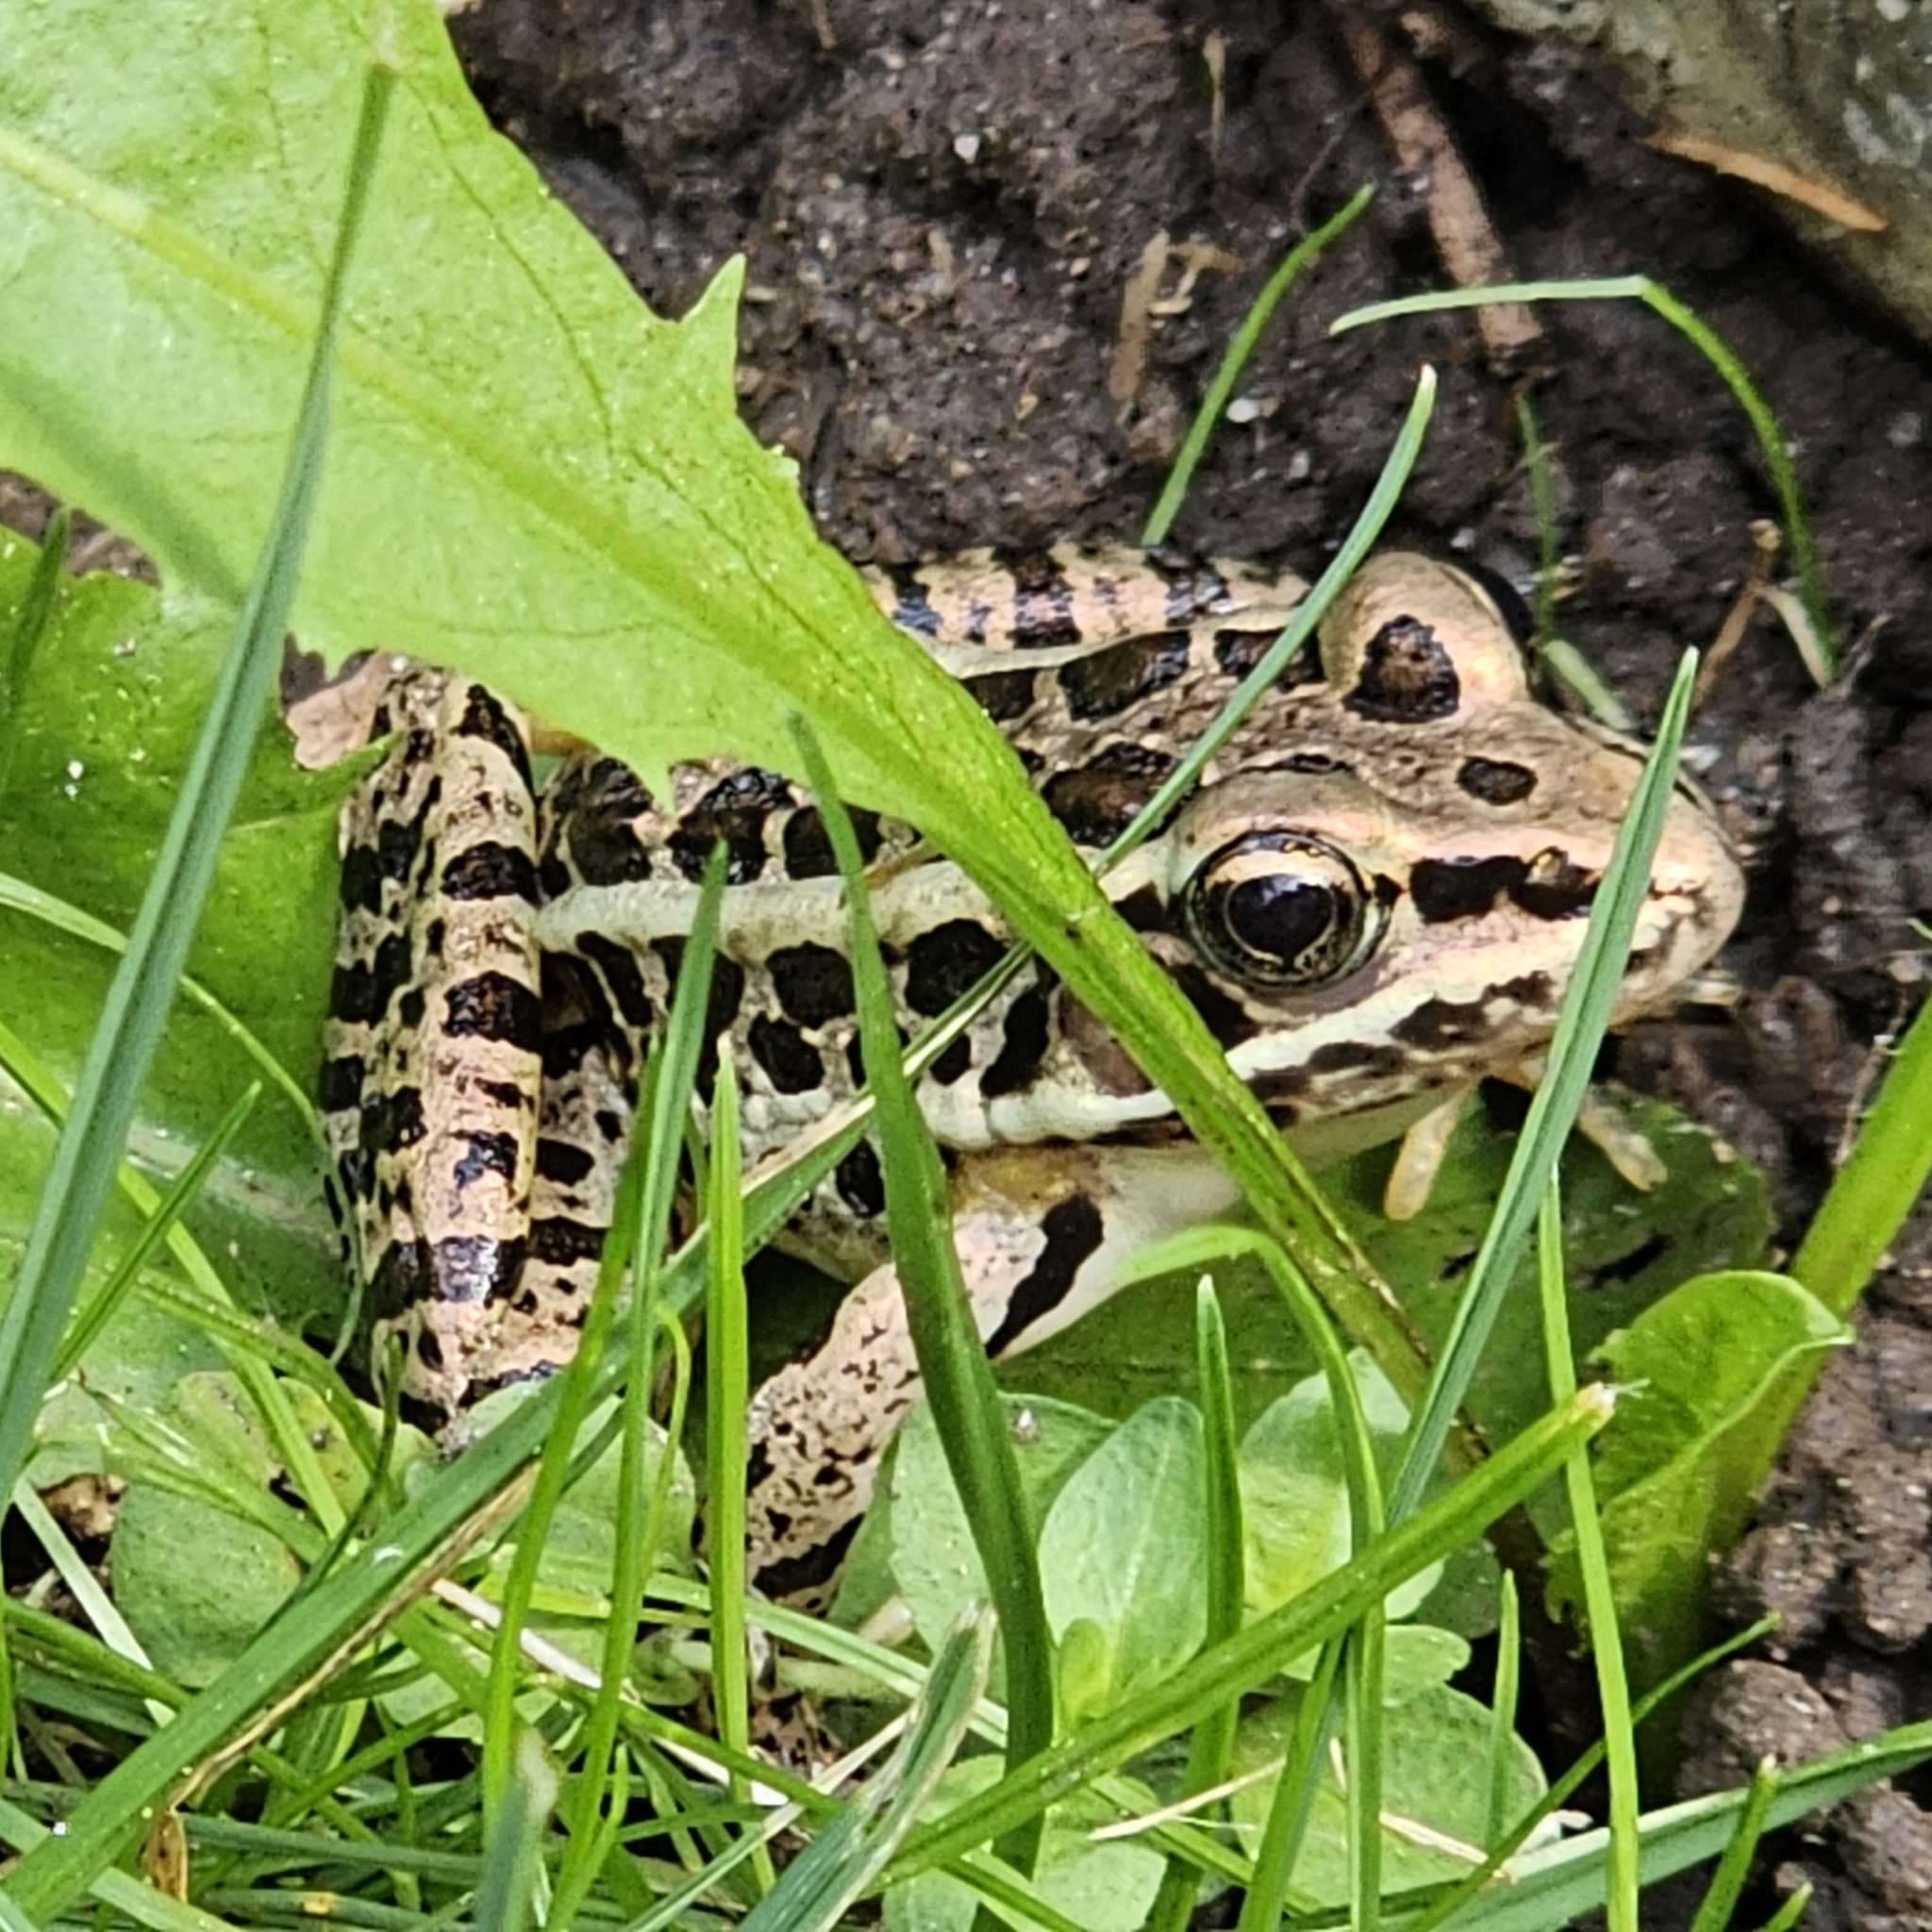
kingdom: Animalia
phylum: Chordata
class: Amphibia
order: Anura
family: Ranidae
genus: Lithobates
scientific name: Lithobates palustris
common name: Pickerel frog
